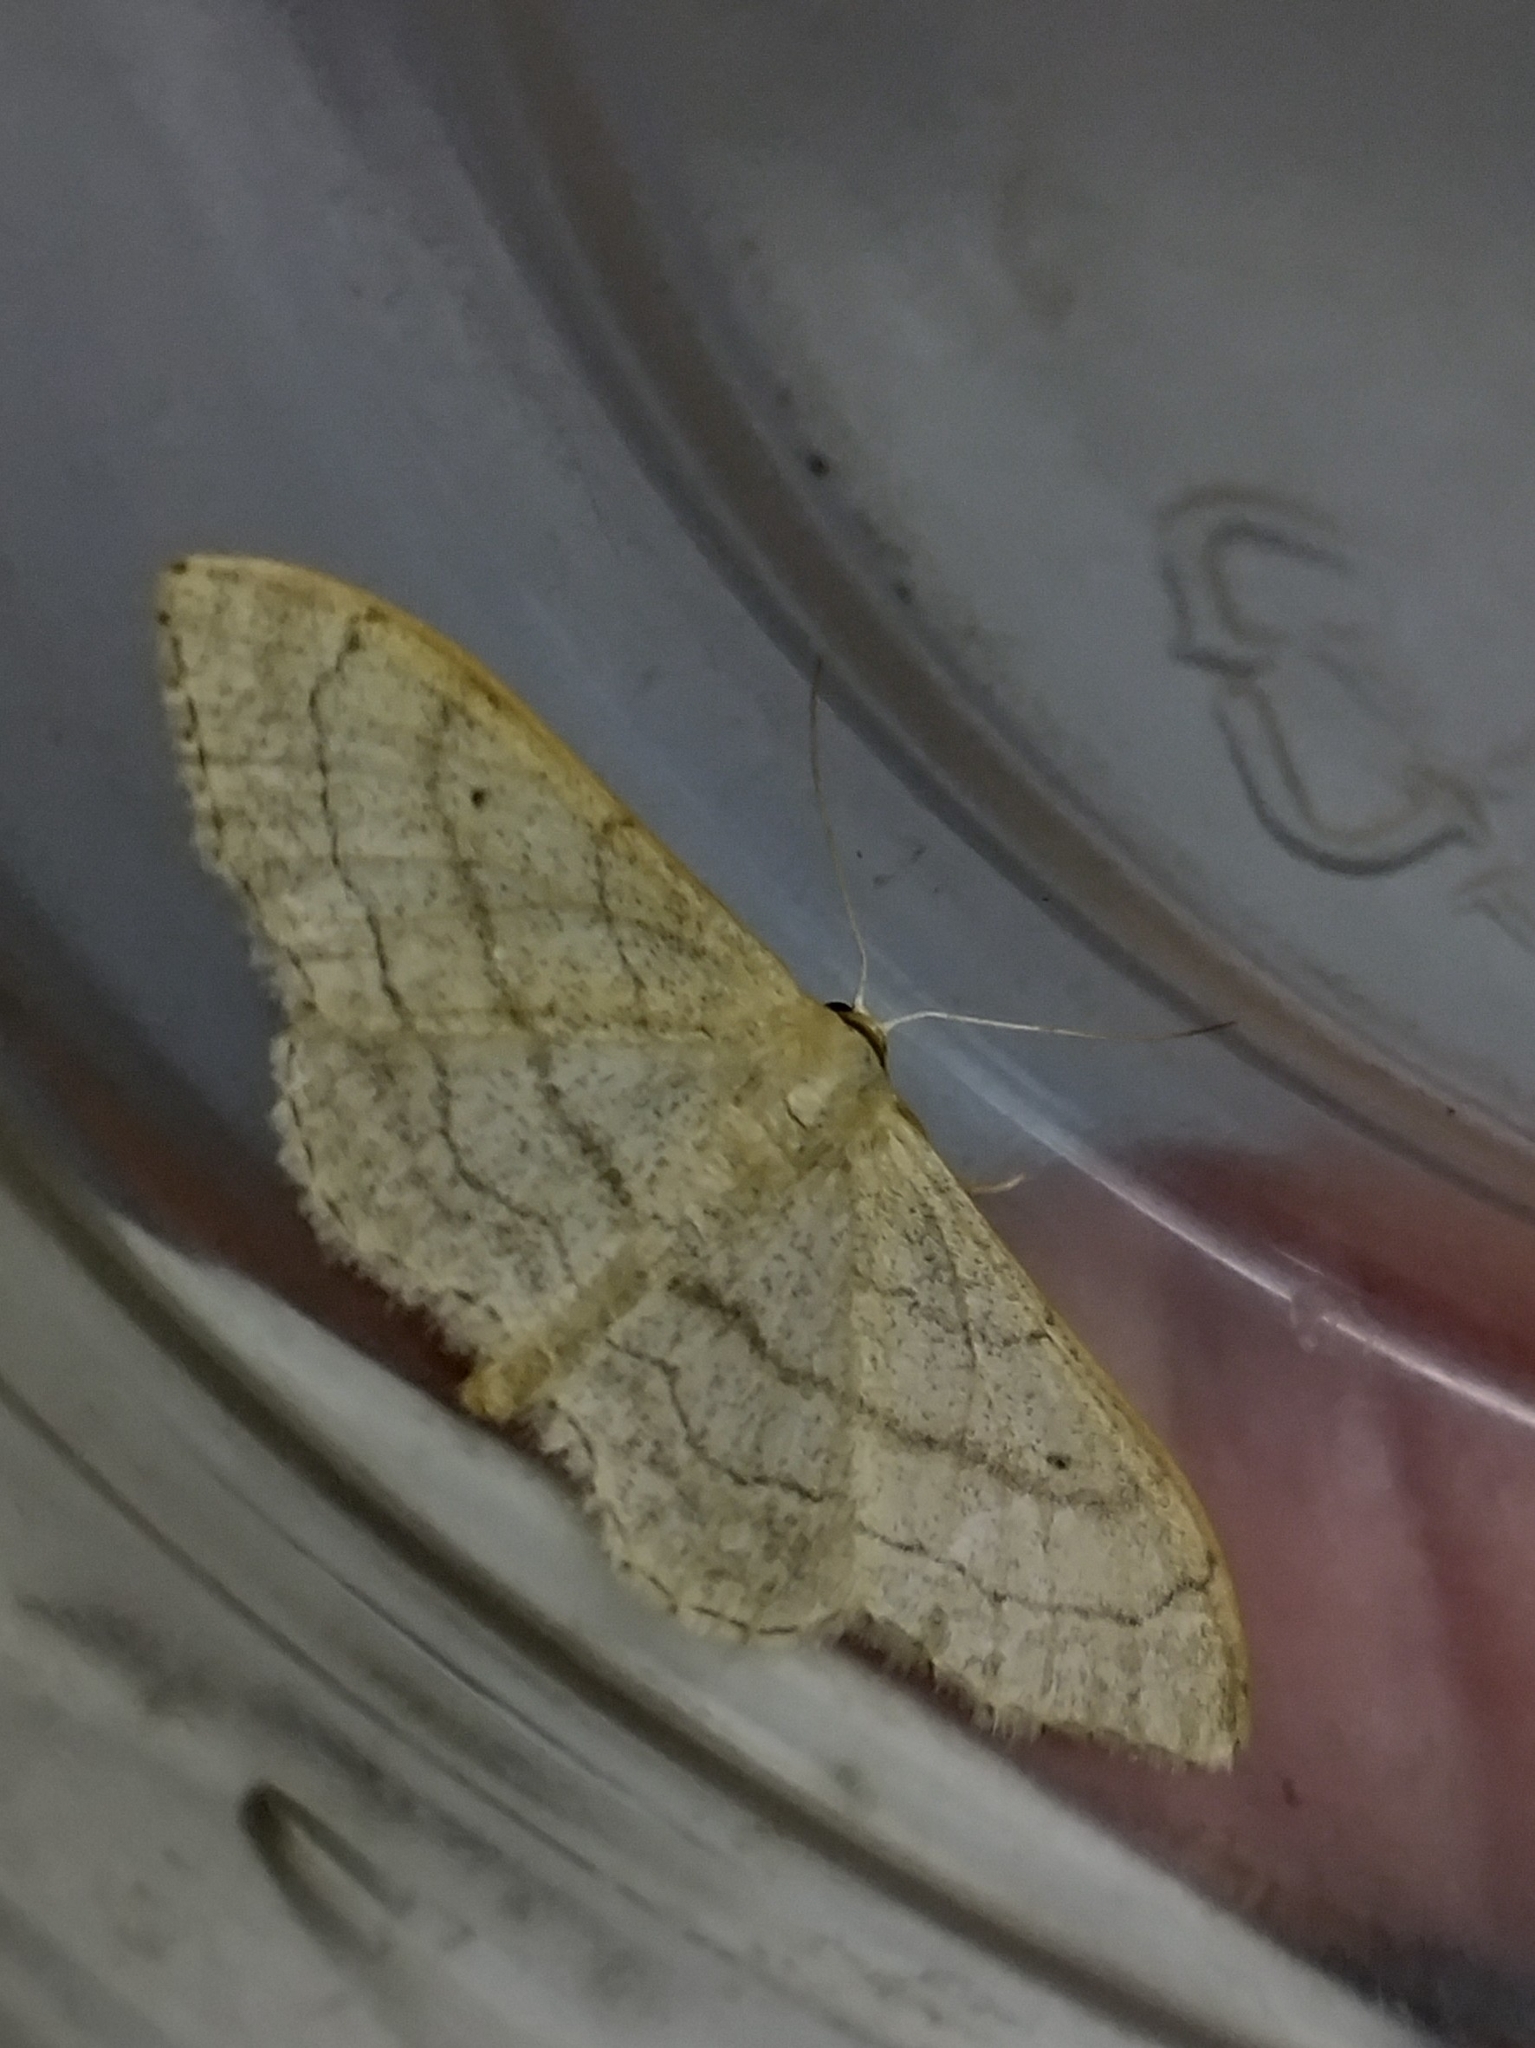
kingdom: Animalia
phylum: Arthropoda
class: Insecta
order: Lepidoptera
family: Geometridae
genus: Idaea
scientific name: Idaea aversata
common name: Riband wave
